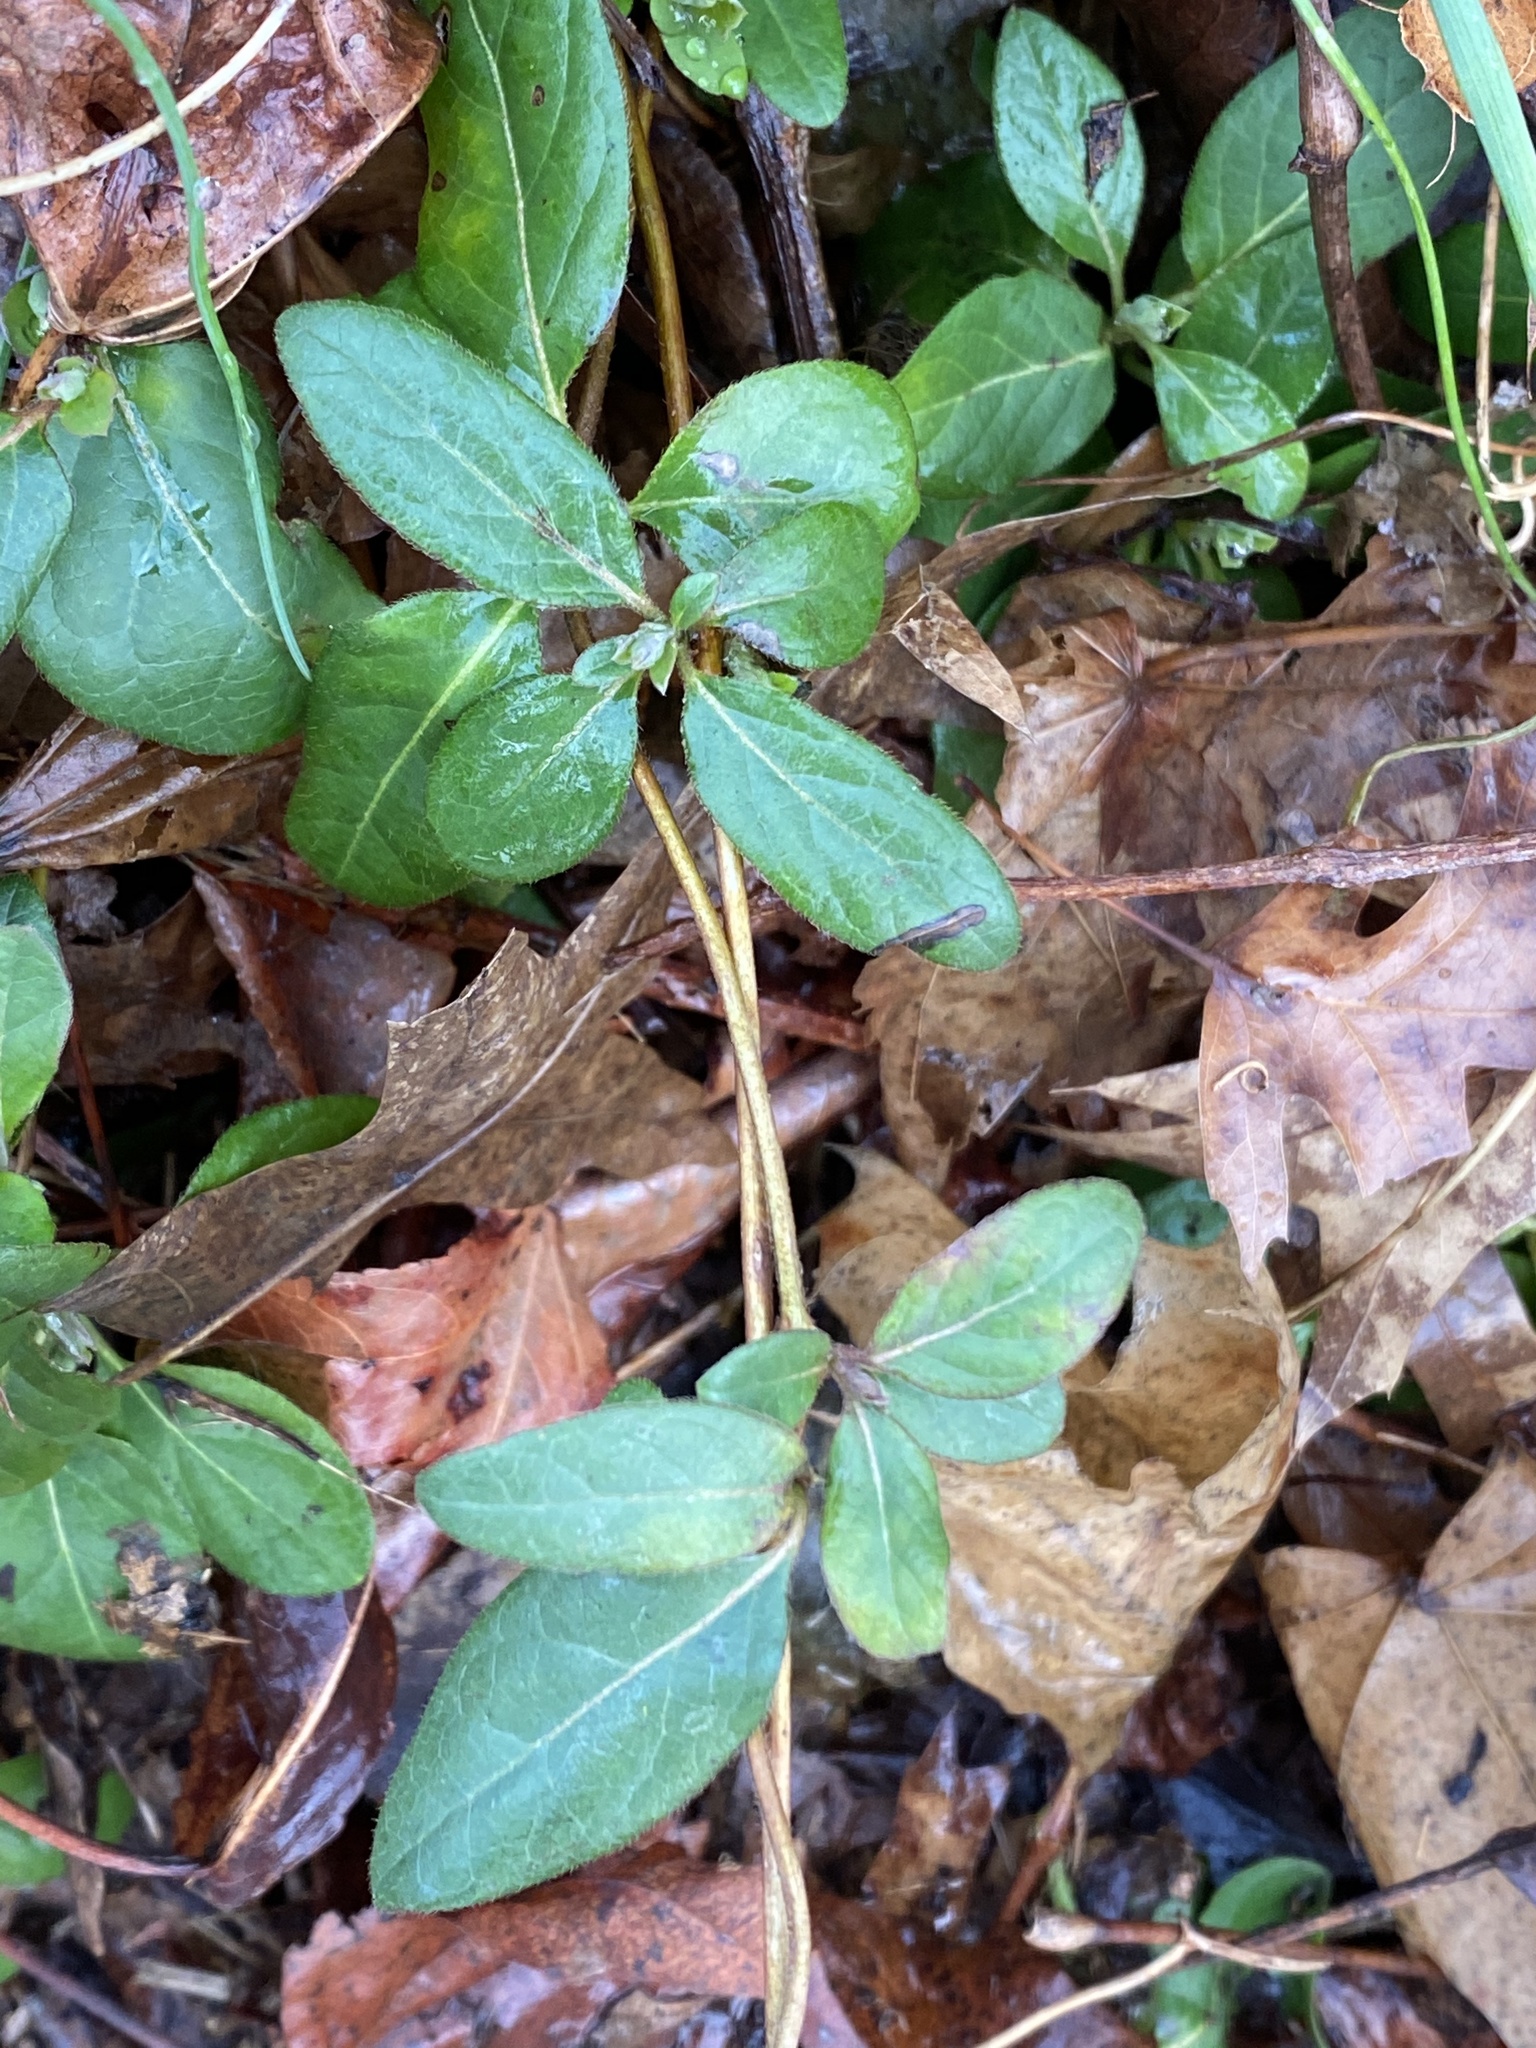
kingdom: Plantae
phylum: Tracheophyta
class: Magnoliopsida
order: Dipsacales
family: Caprifoliaceae
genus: Lonicera
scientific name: Lonicera japonica
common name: Japanese honeysuckle
